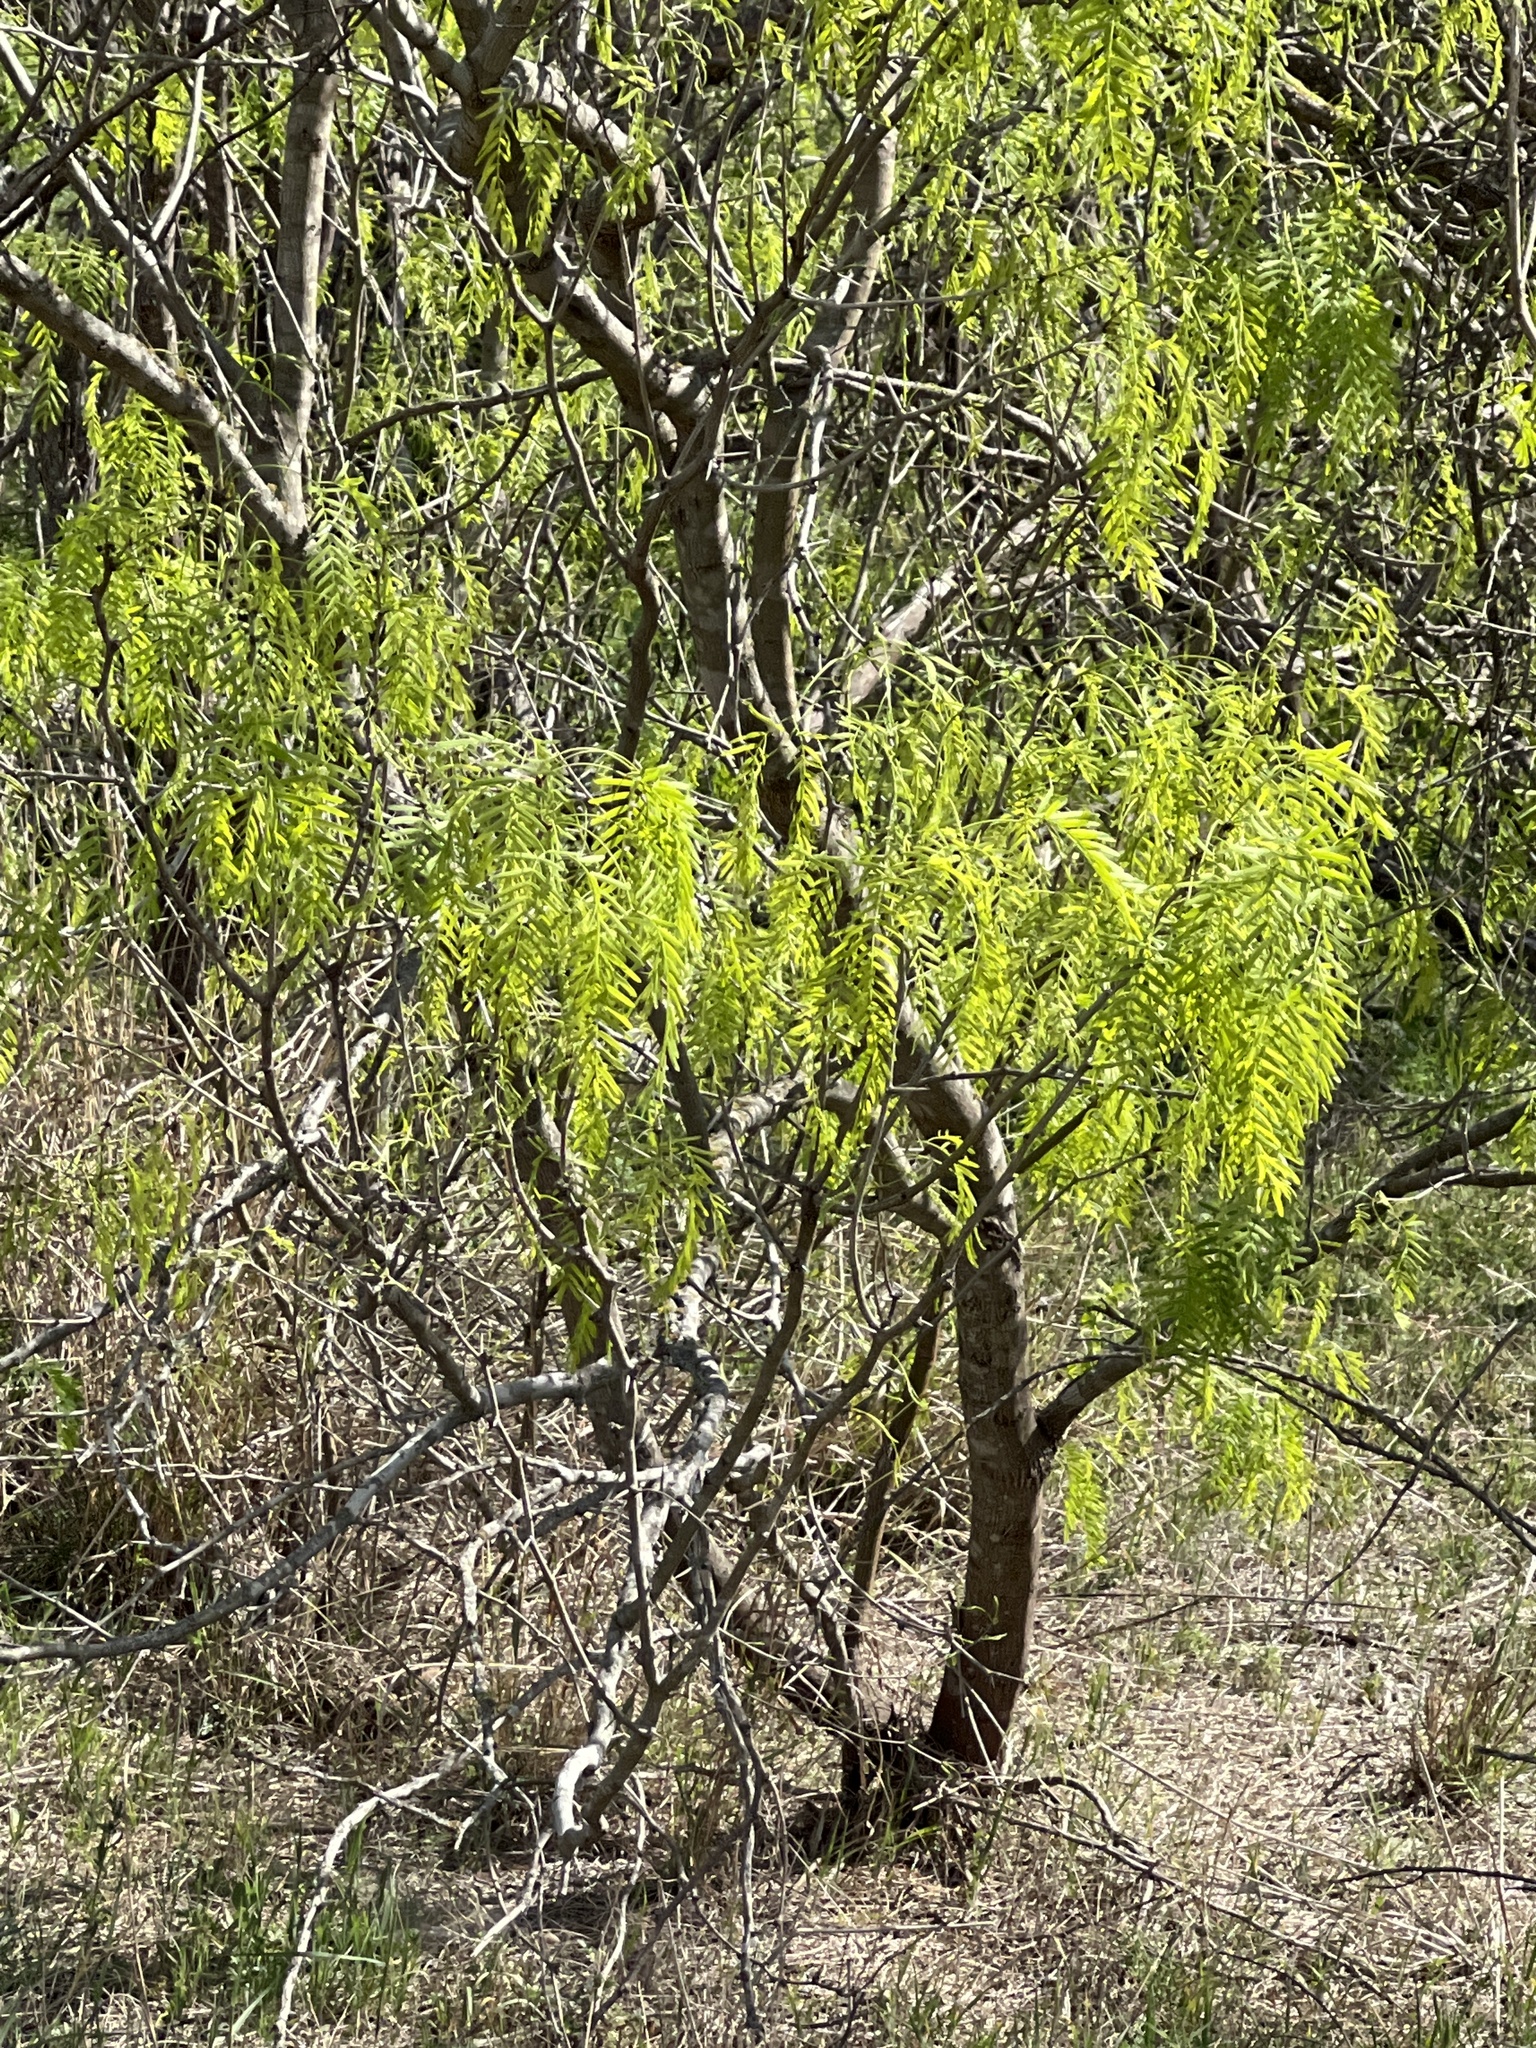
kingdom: Plantae
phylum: Tracheophyta
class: Magnoliopsida
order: Fabales
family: Fabaceae
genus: Prosopis
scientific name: Prosopis glandulosa
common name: Honey mesquite
